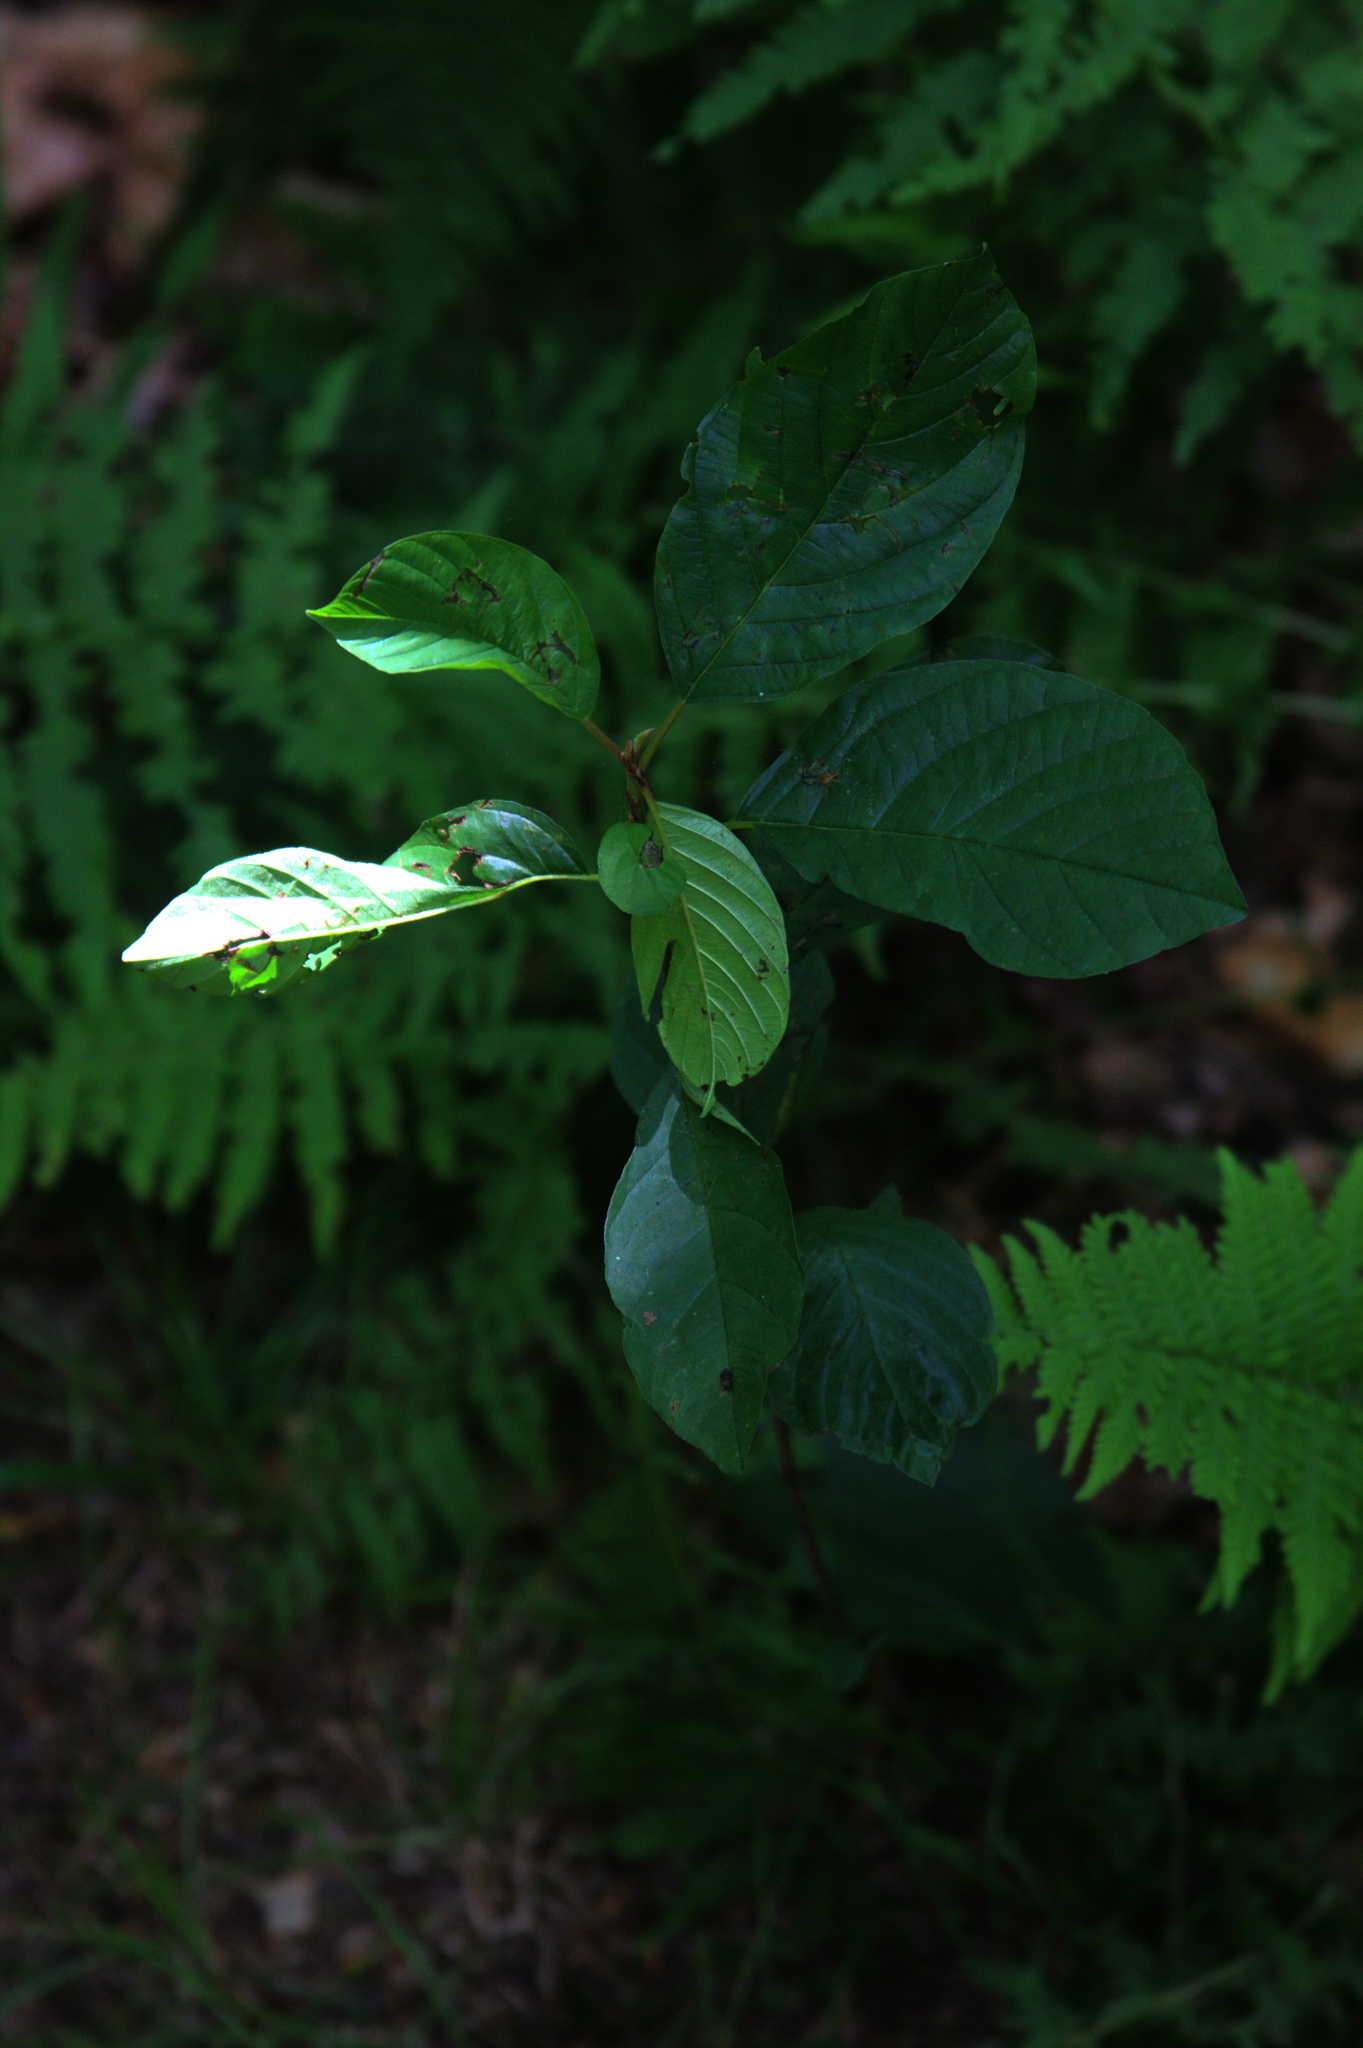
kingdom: Plantae
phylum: Tracheophyta
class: Magnoliopsida
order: Rosales
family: Rhamnaceae
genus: Frangula
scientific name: Frangula alnus
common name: Alder buckthorn
